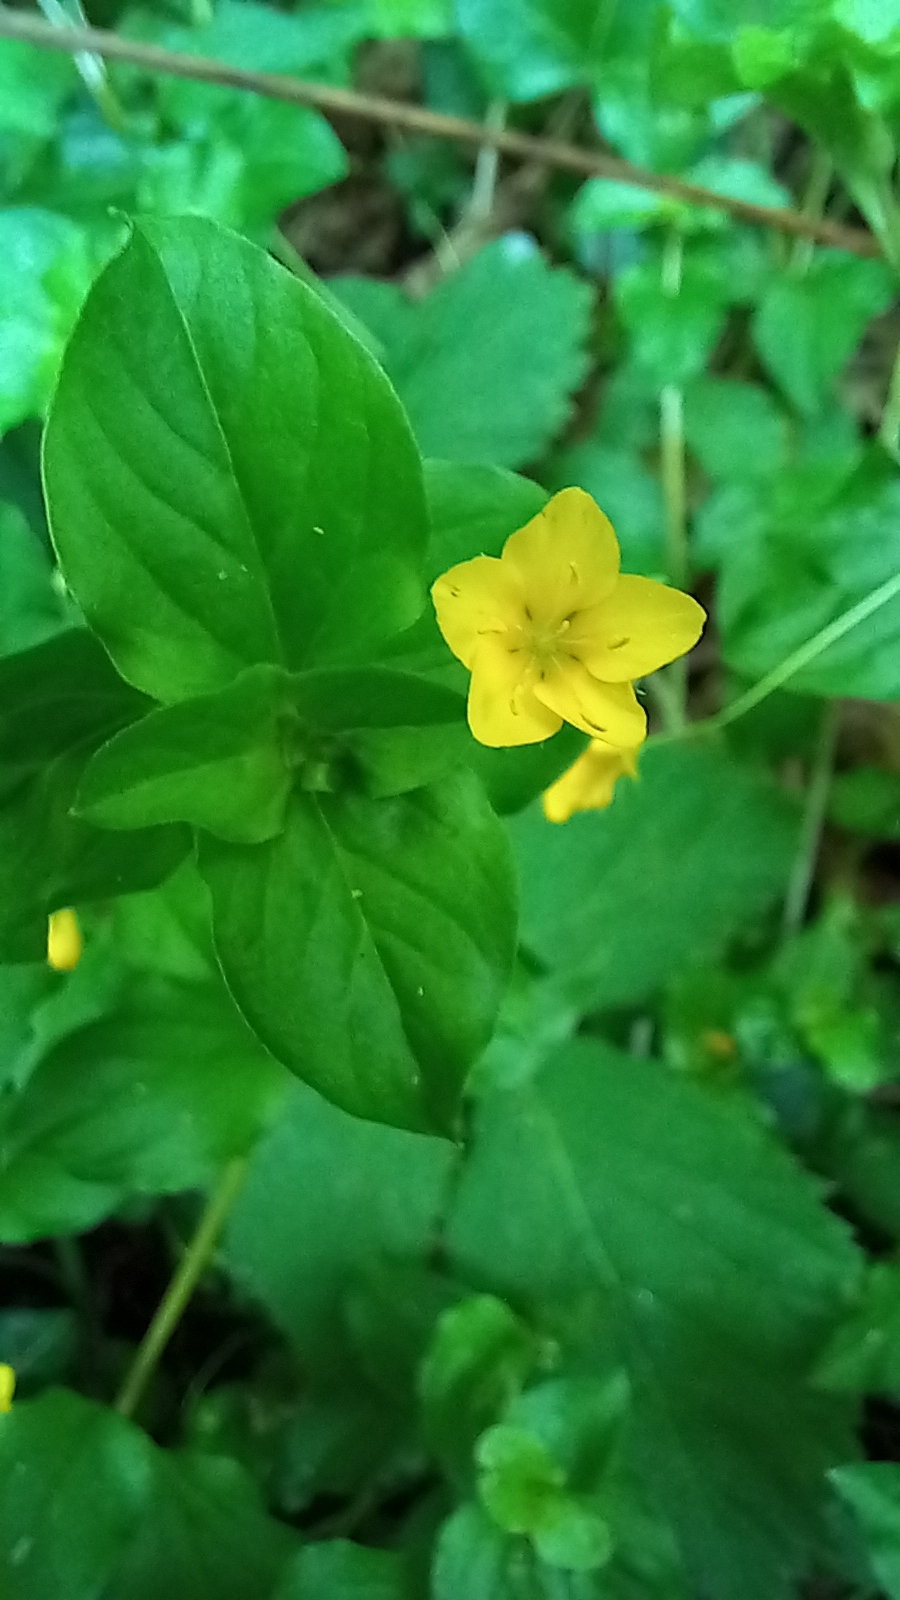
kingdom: Plantae
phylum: Tracheophyta
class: Magnoliopsida
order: Ericales
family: Primulaceae
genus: Lysimachia
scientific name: Lysimachia nemorum
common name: Yellow pimpernel
